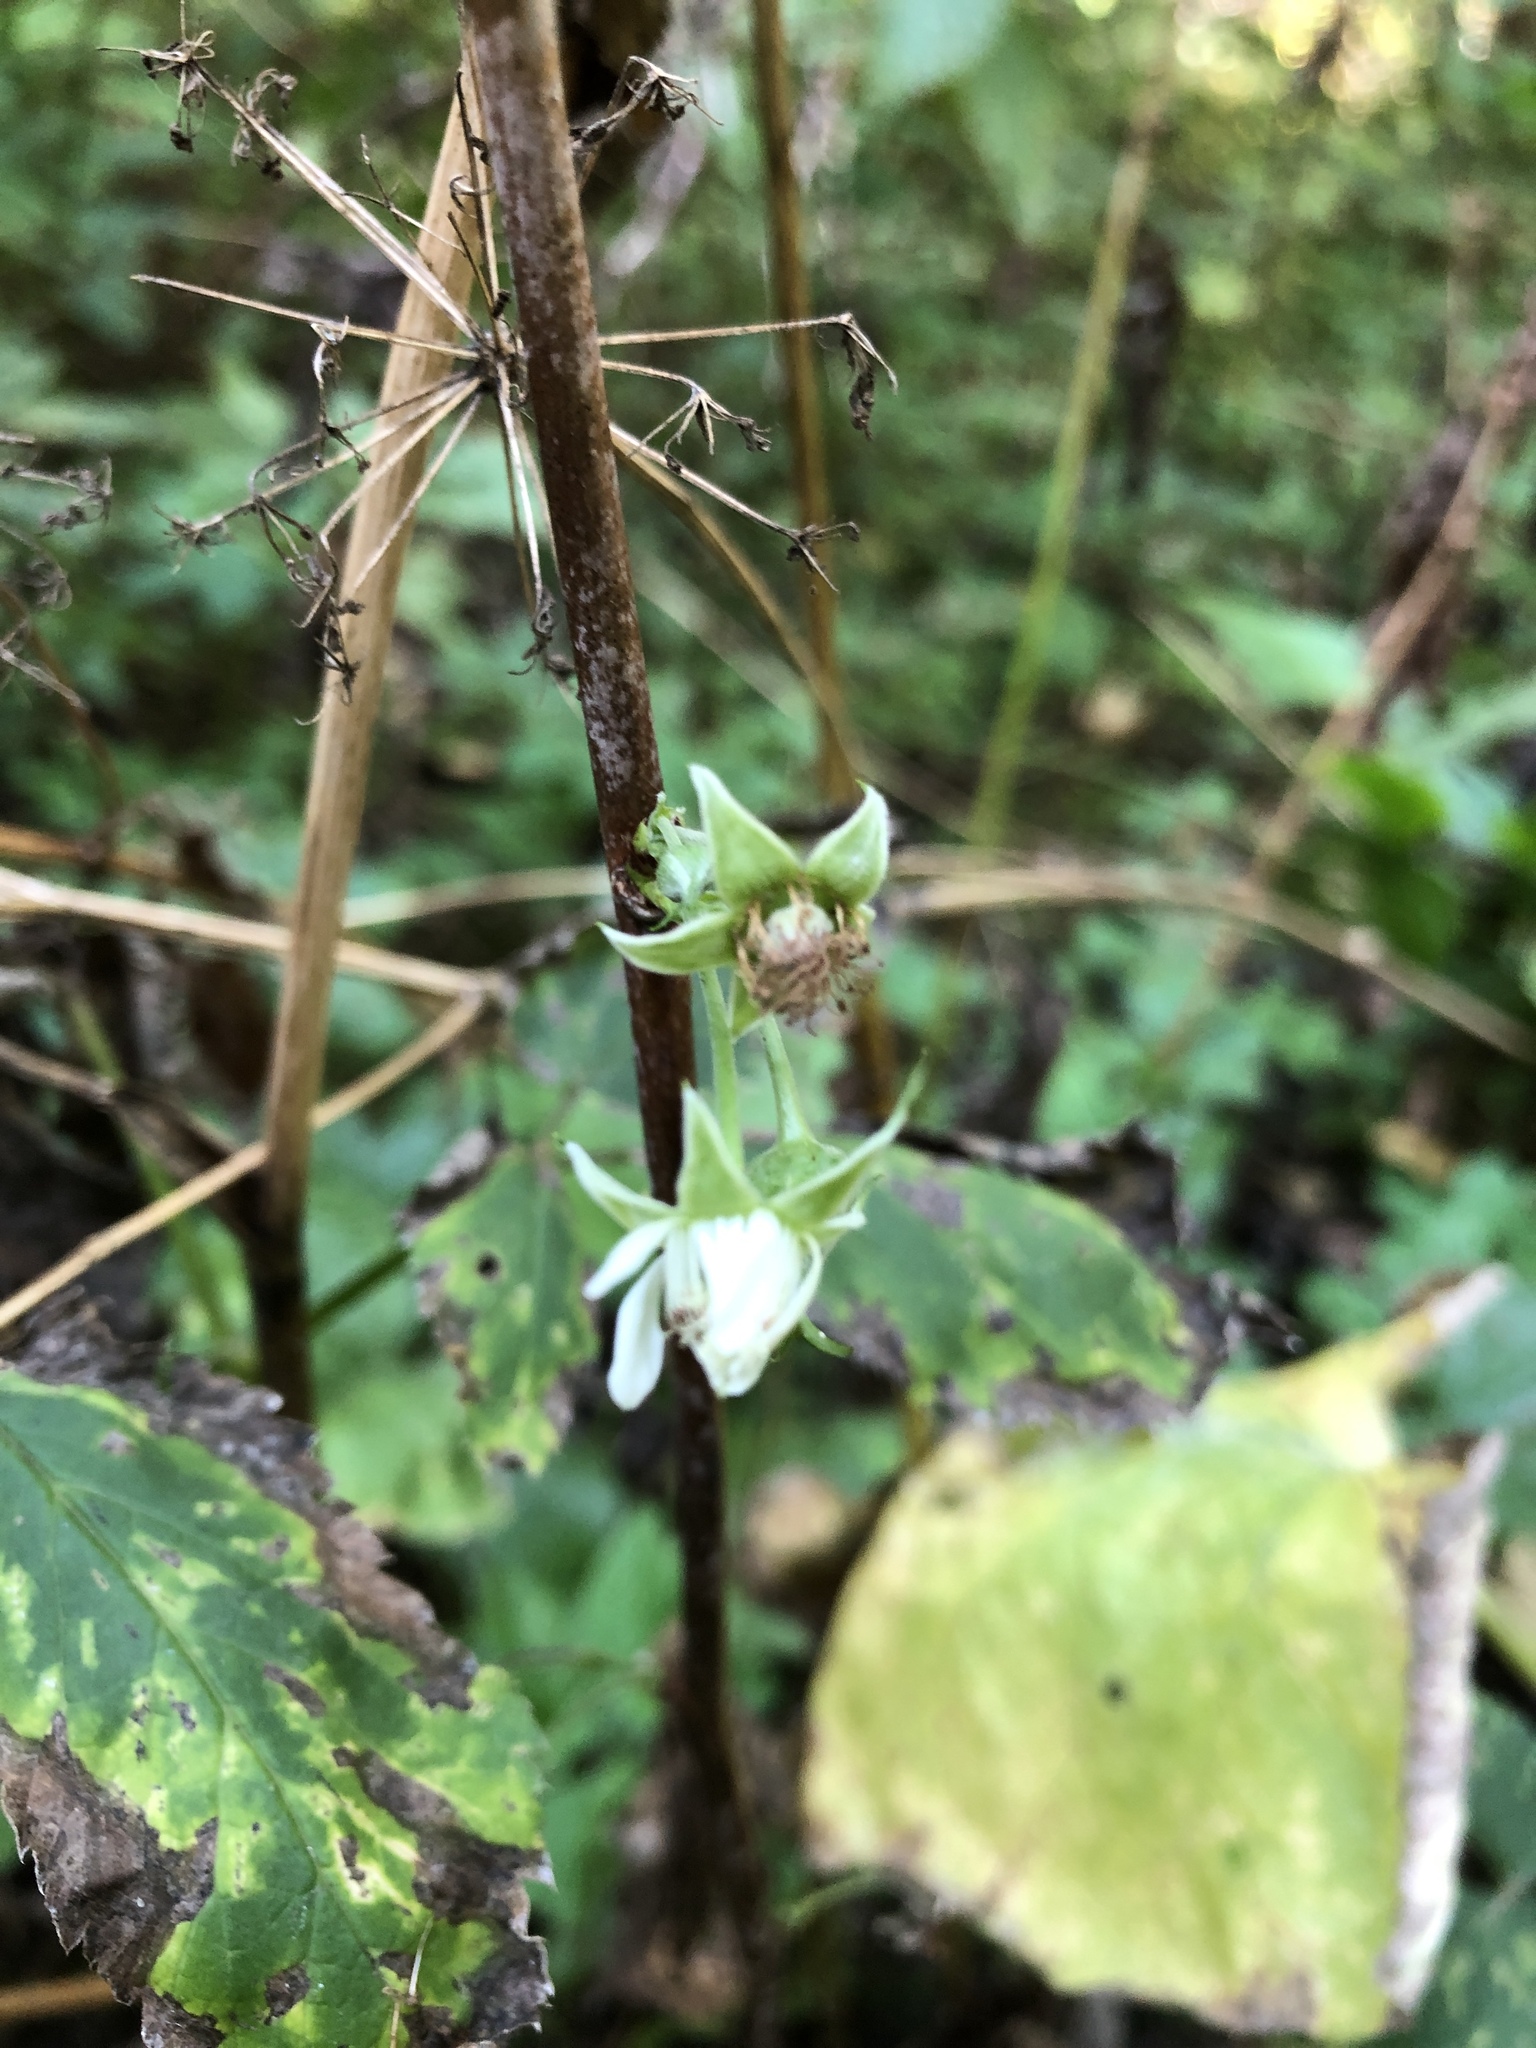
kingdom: Plantae
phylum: Tracheophyta
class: Magnoliopsida
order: Rosales
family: Rosaceae
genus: Rubus
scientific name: Rubus idaeus
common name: Raspberry
